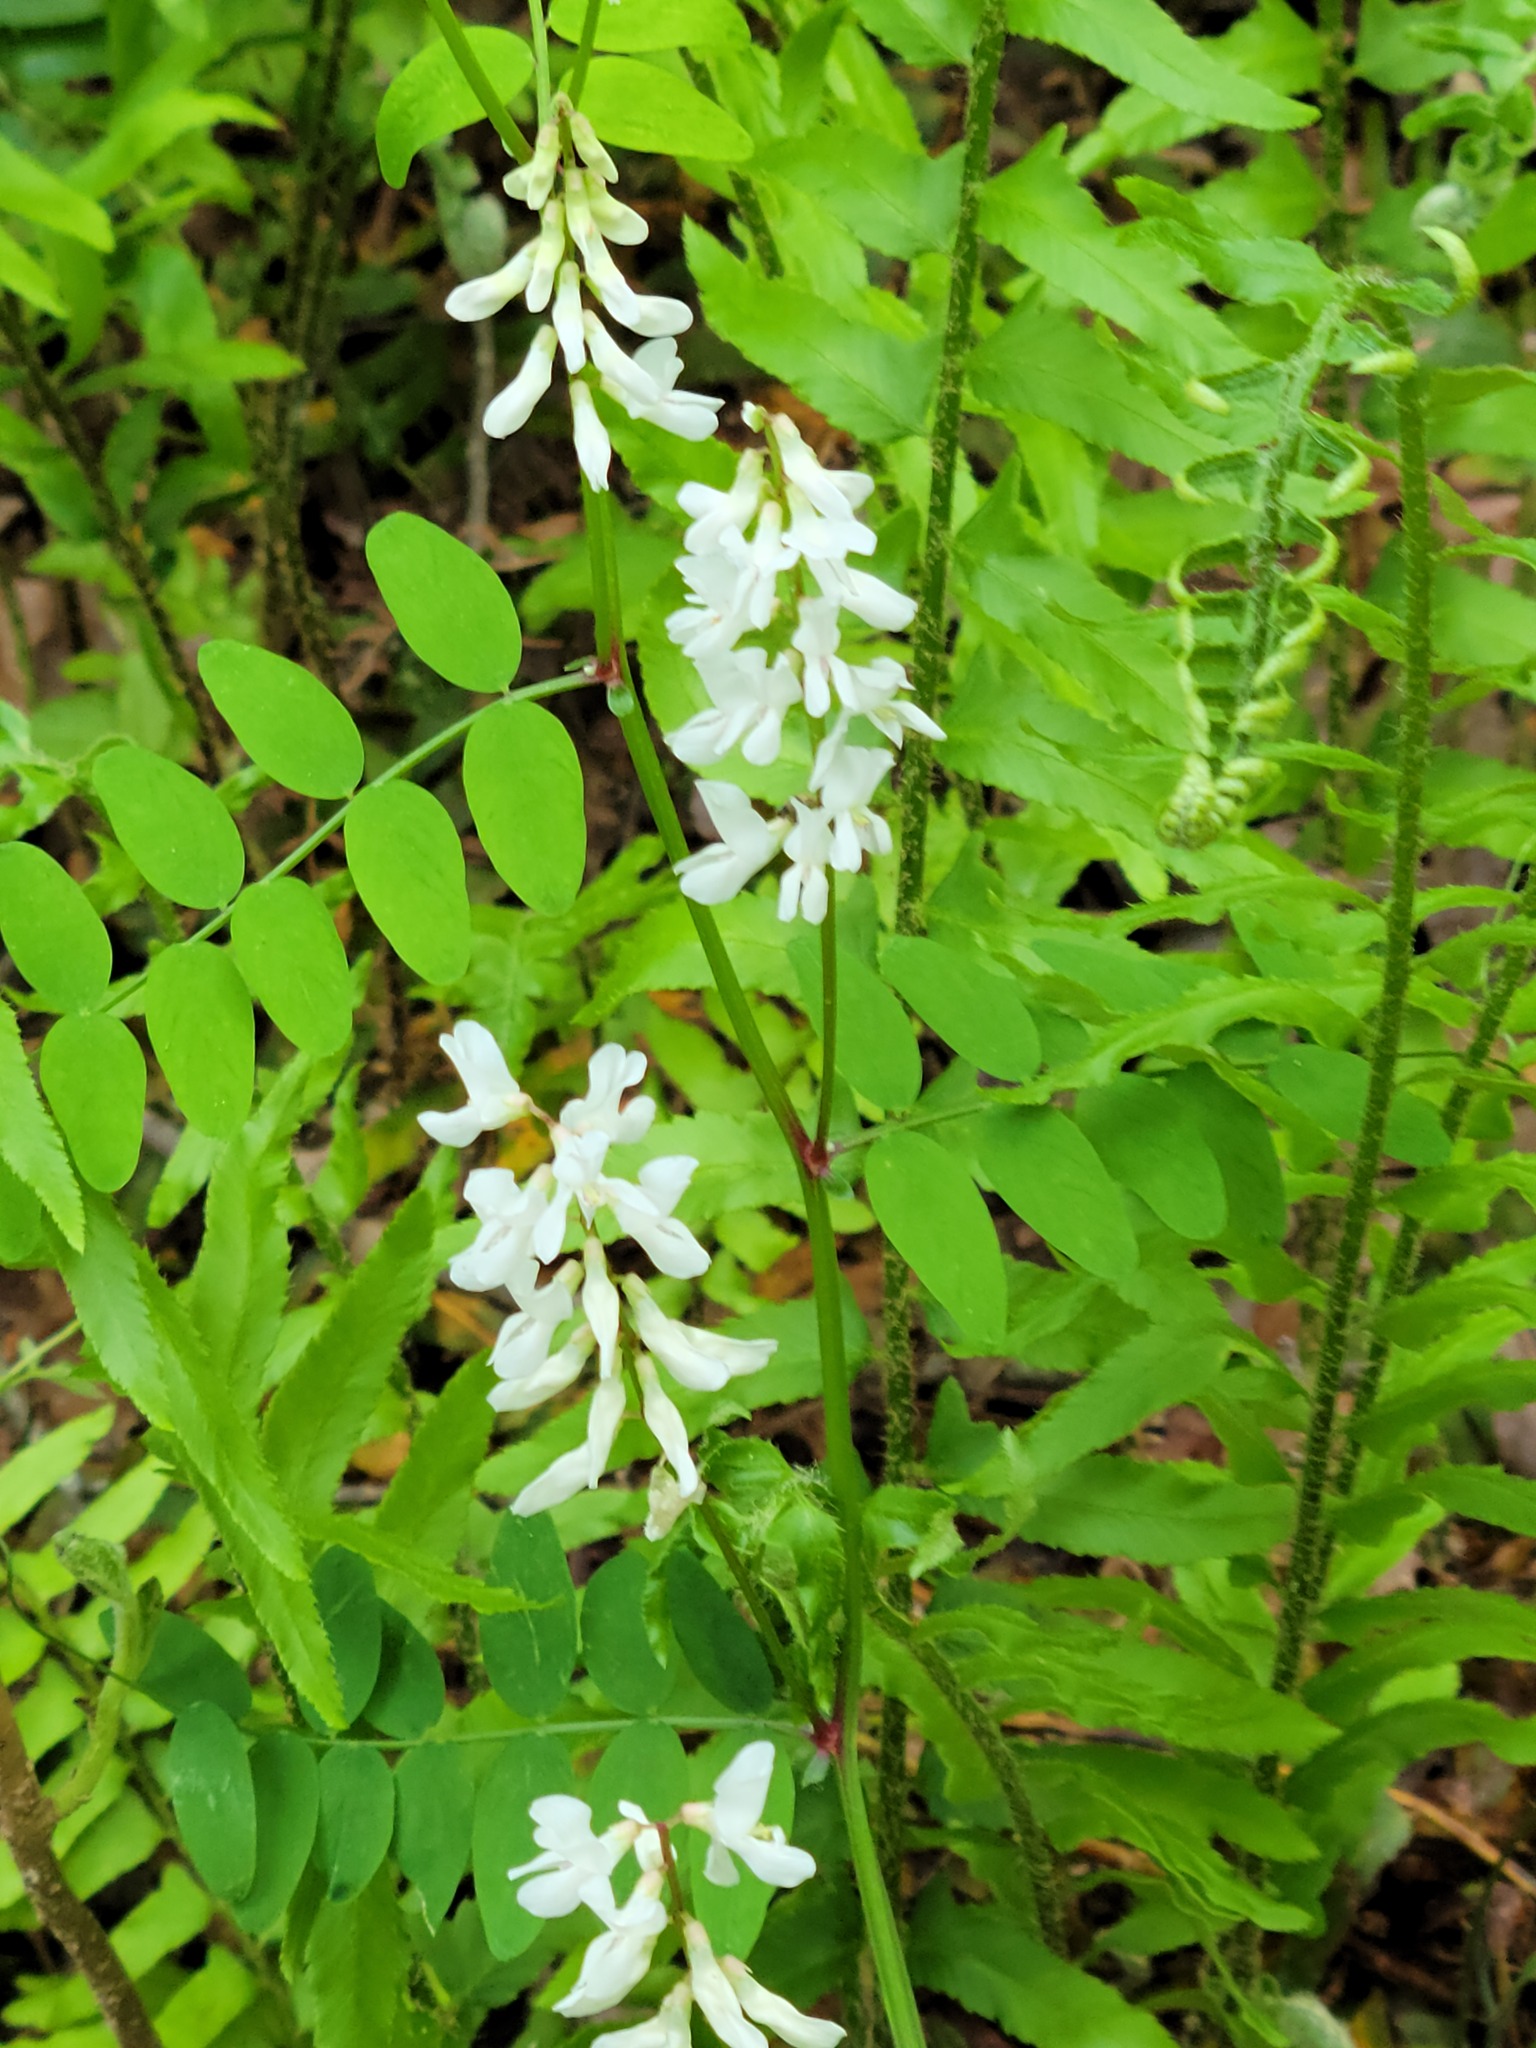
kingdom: Plantae
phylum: Tracheophyta
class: Magnoliopsida
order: Fabales
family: Fabaceae
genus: Vicia
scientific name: Vicia caroliniana
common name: Carolina vetch
